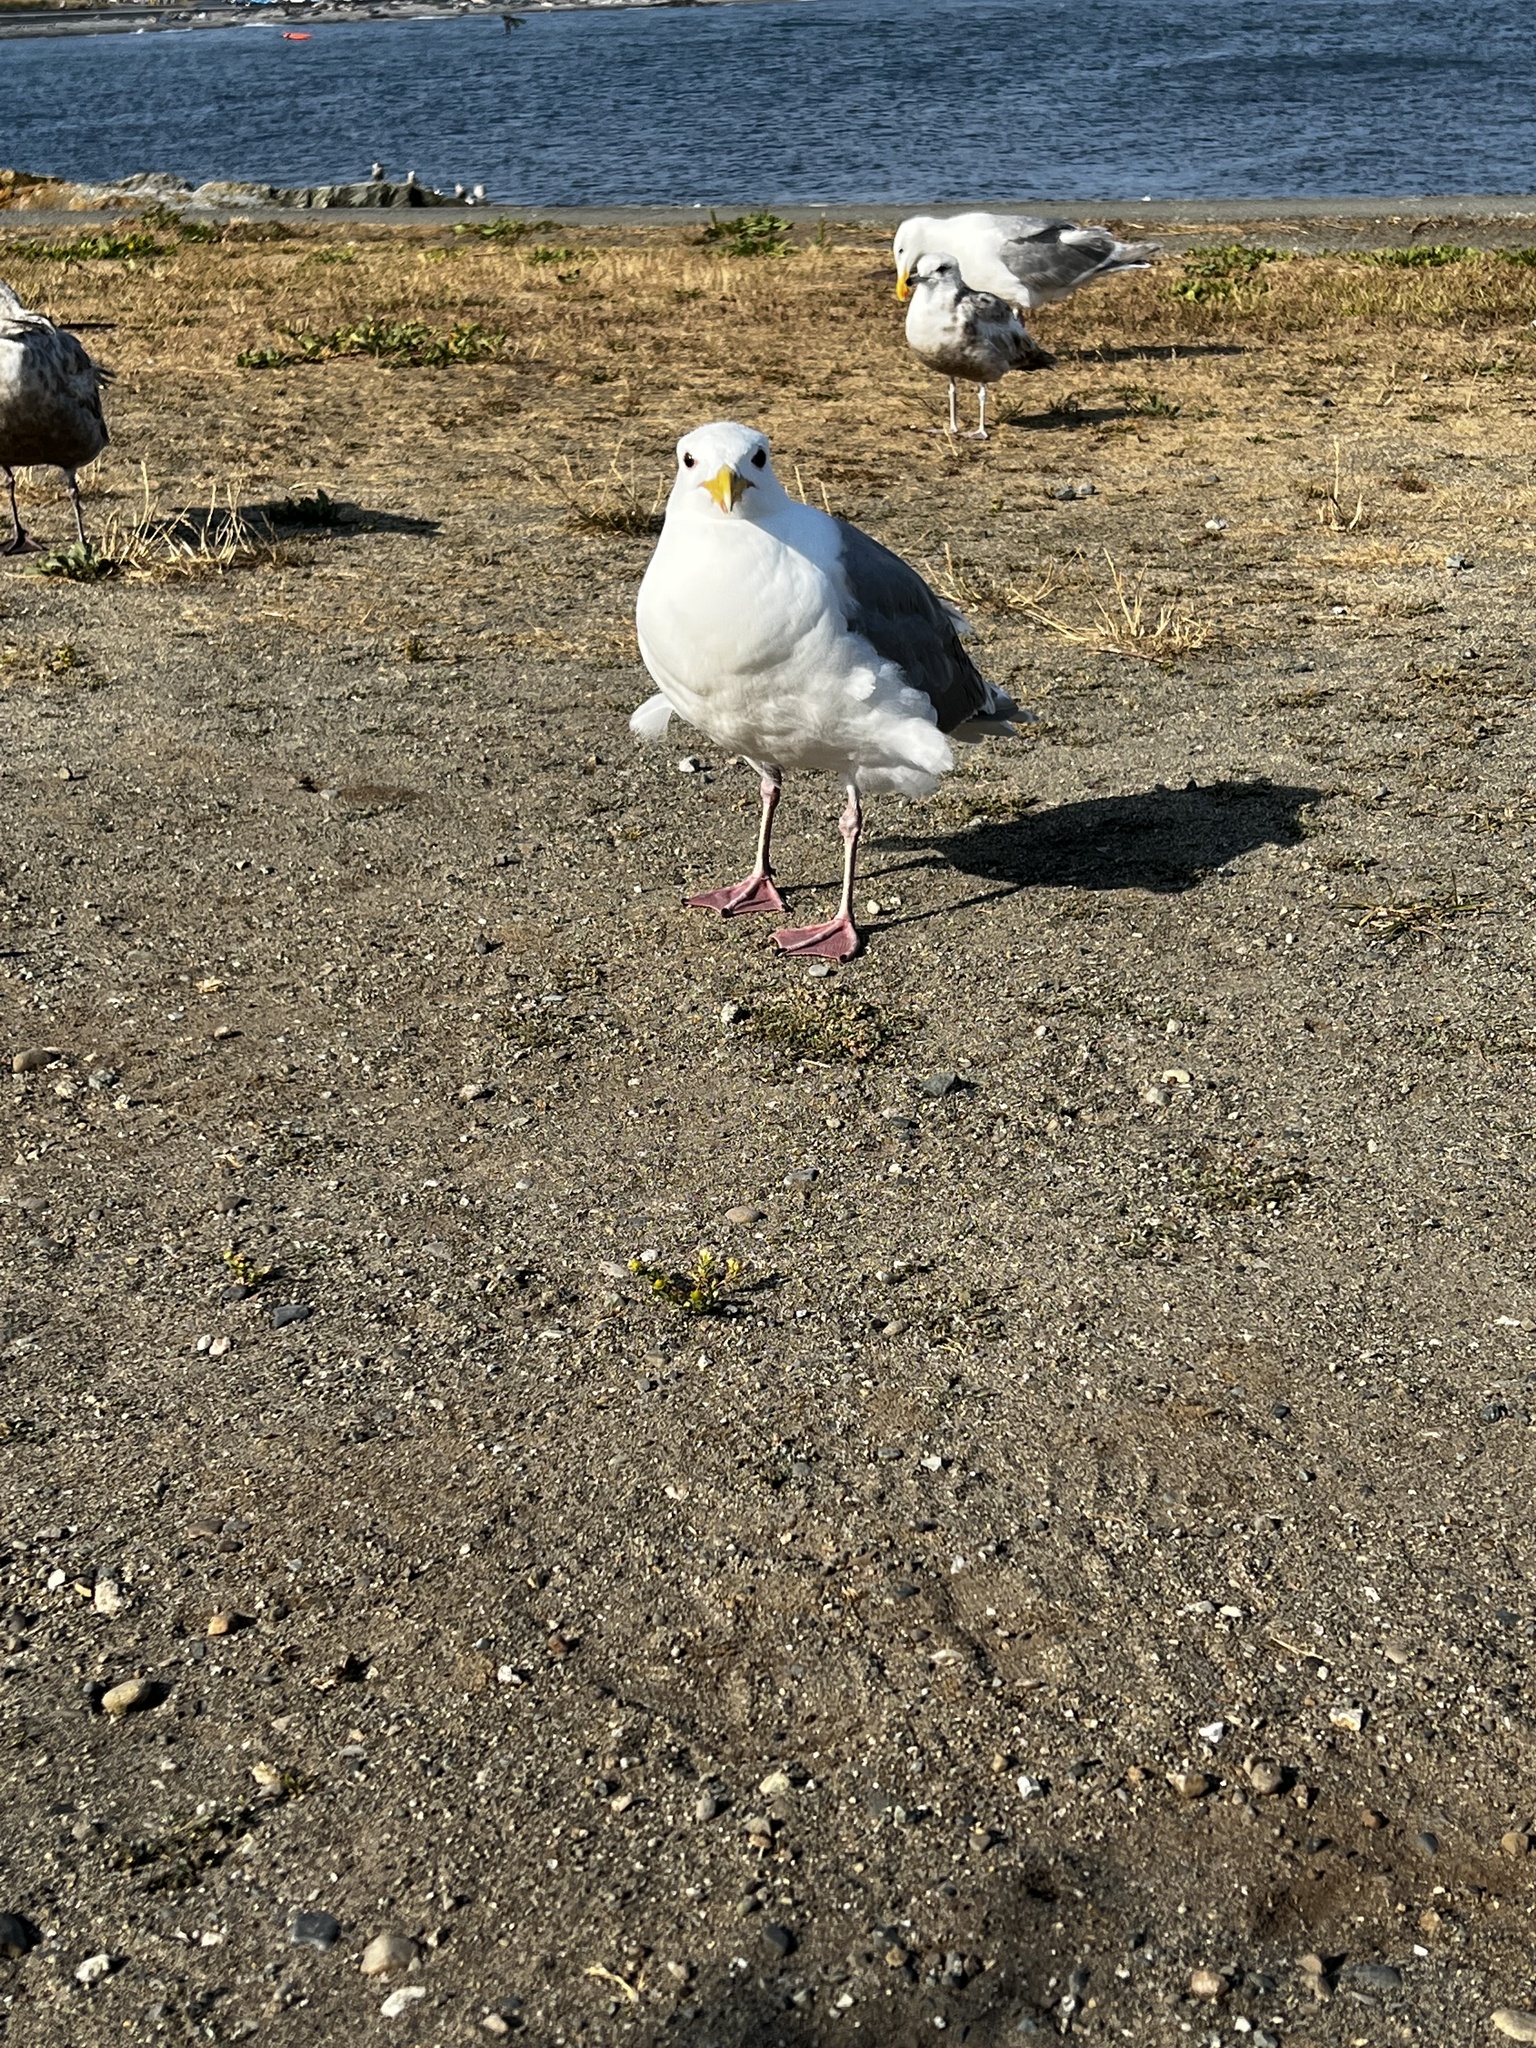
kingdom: Animalia
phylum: Chordata
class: Aves
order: Charadriiformes
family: Laridae
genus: Larus
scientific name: Larus
